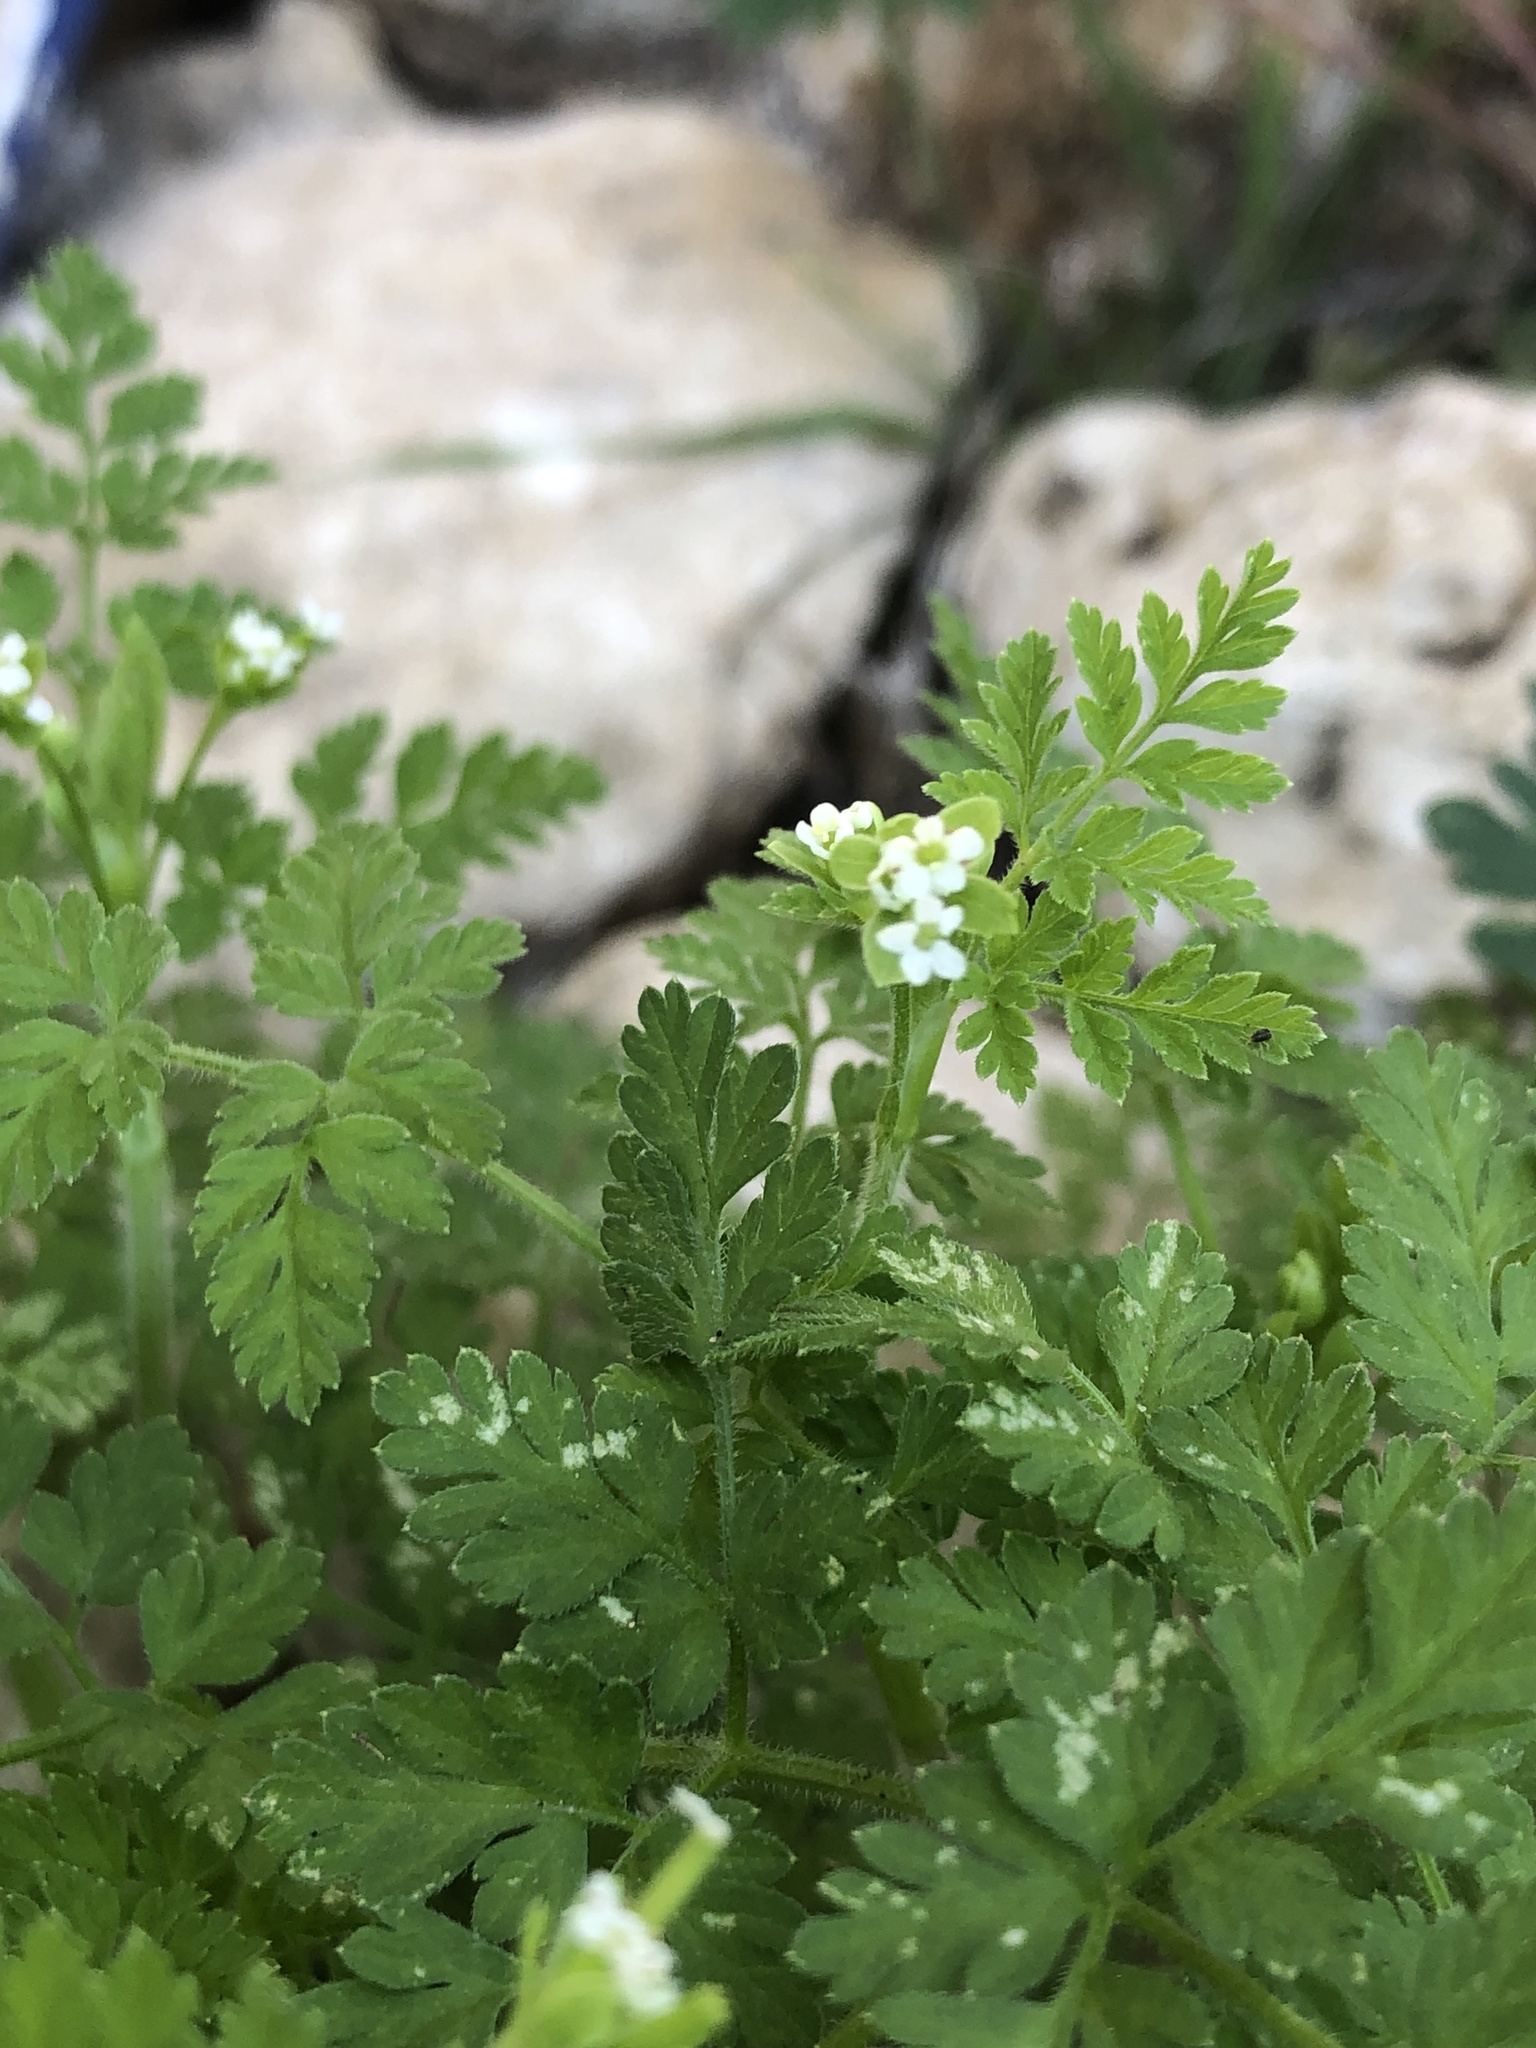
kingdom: Plantae
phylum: Tracheophyta
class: Magnoliopsida
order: Apiales
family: Apiaceae
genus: Chaerophyllum
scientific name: Chaerophyllum tainturieri
